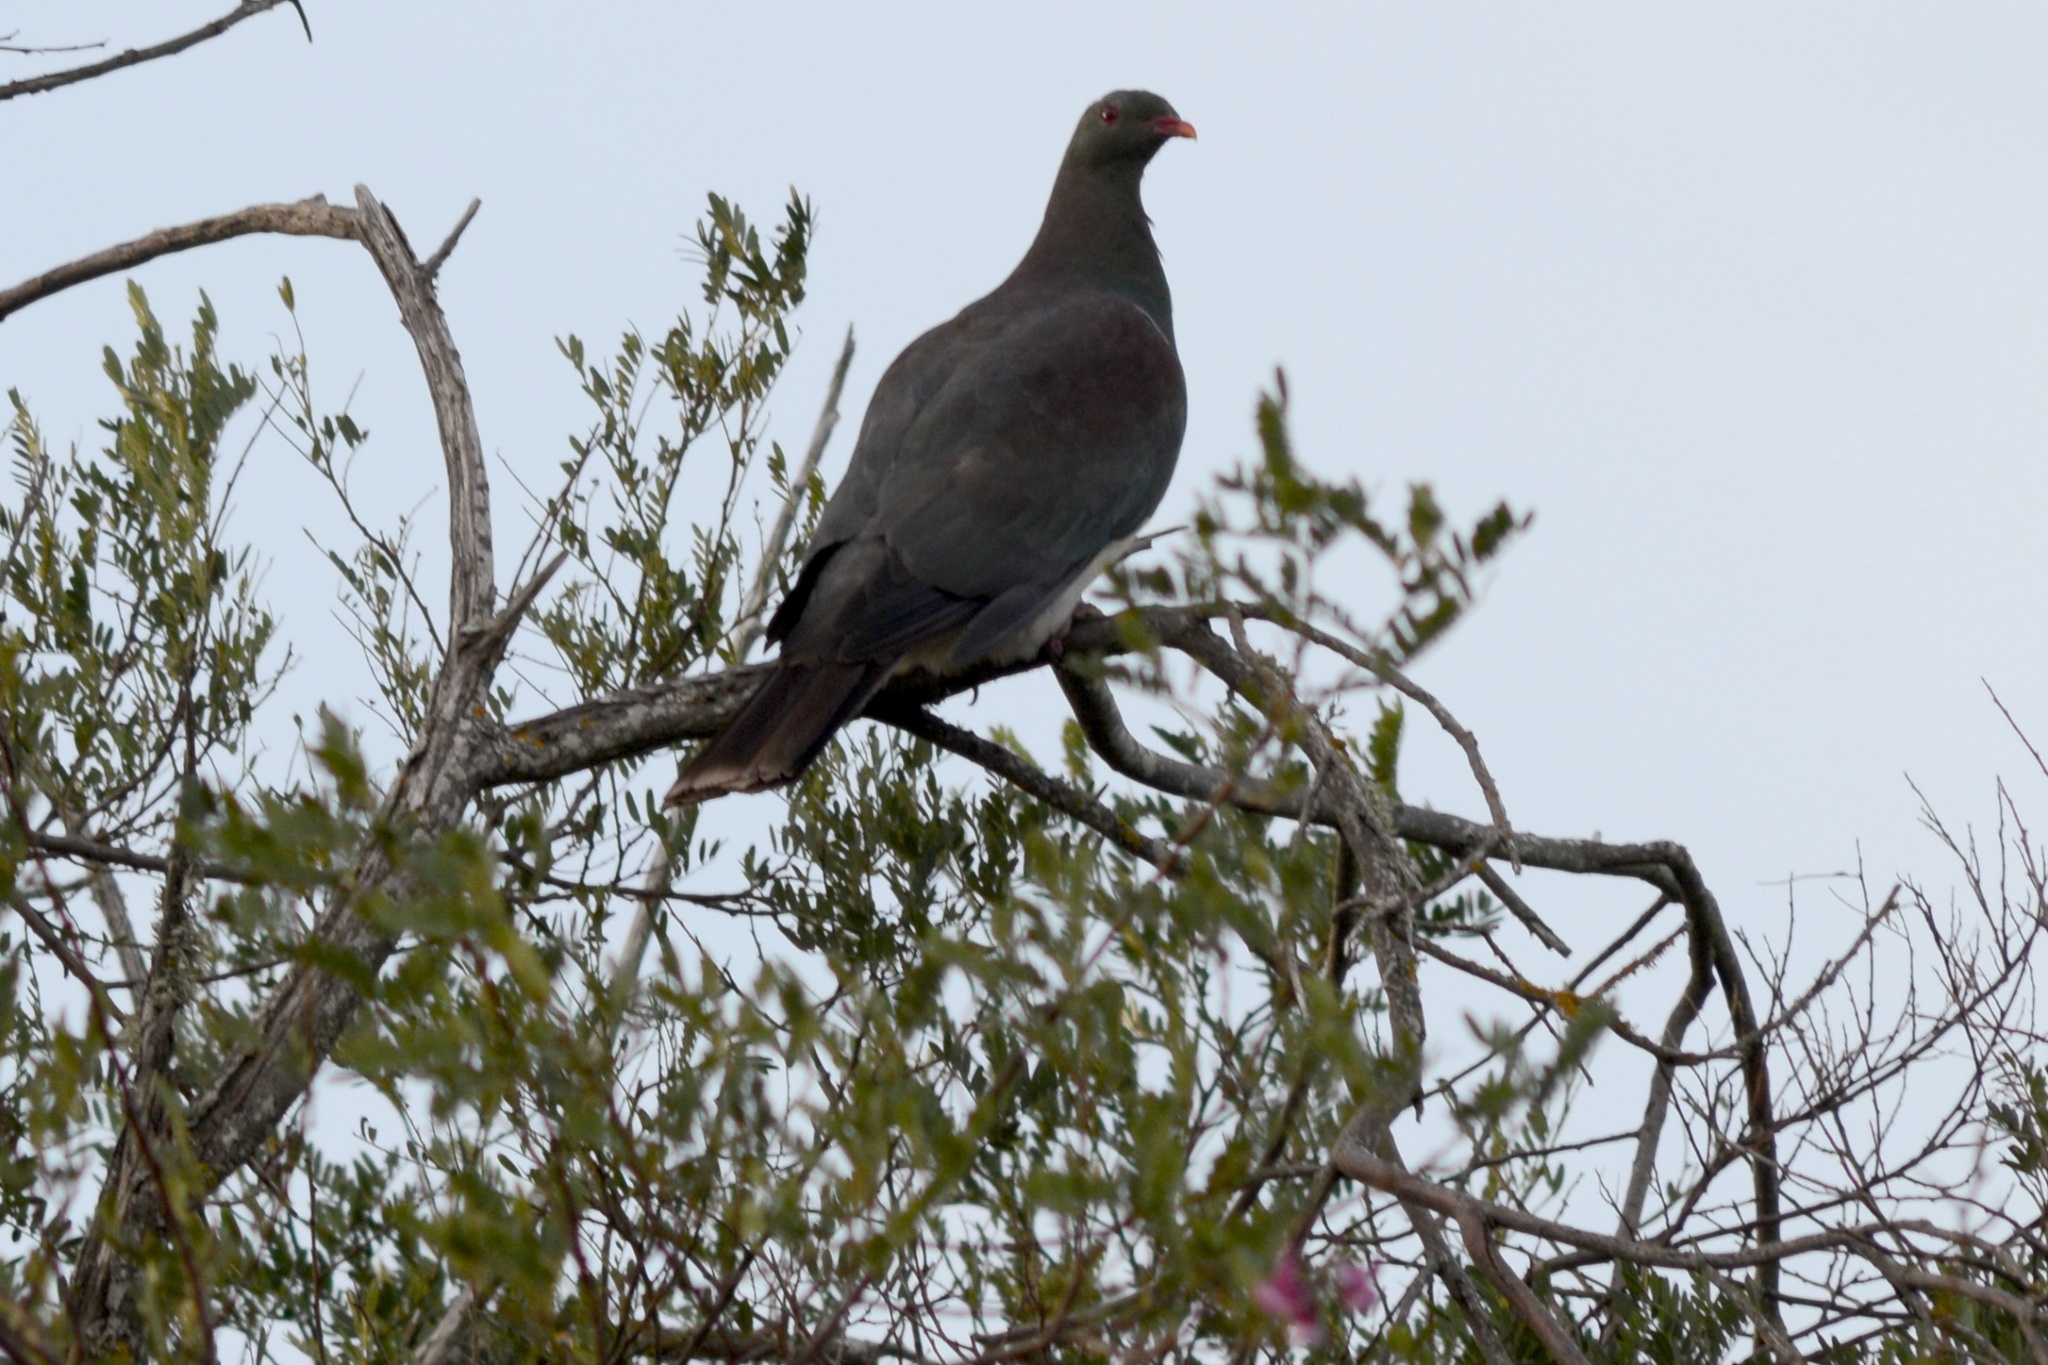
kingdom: Animalia
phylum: Chordata
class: Aves
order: Columbiformes
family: Columbidae
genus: Hemiphaga
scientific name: Hemiphaga novaeseelandiae
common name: New zealand pigeon
